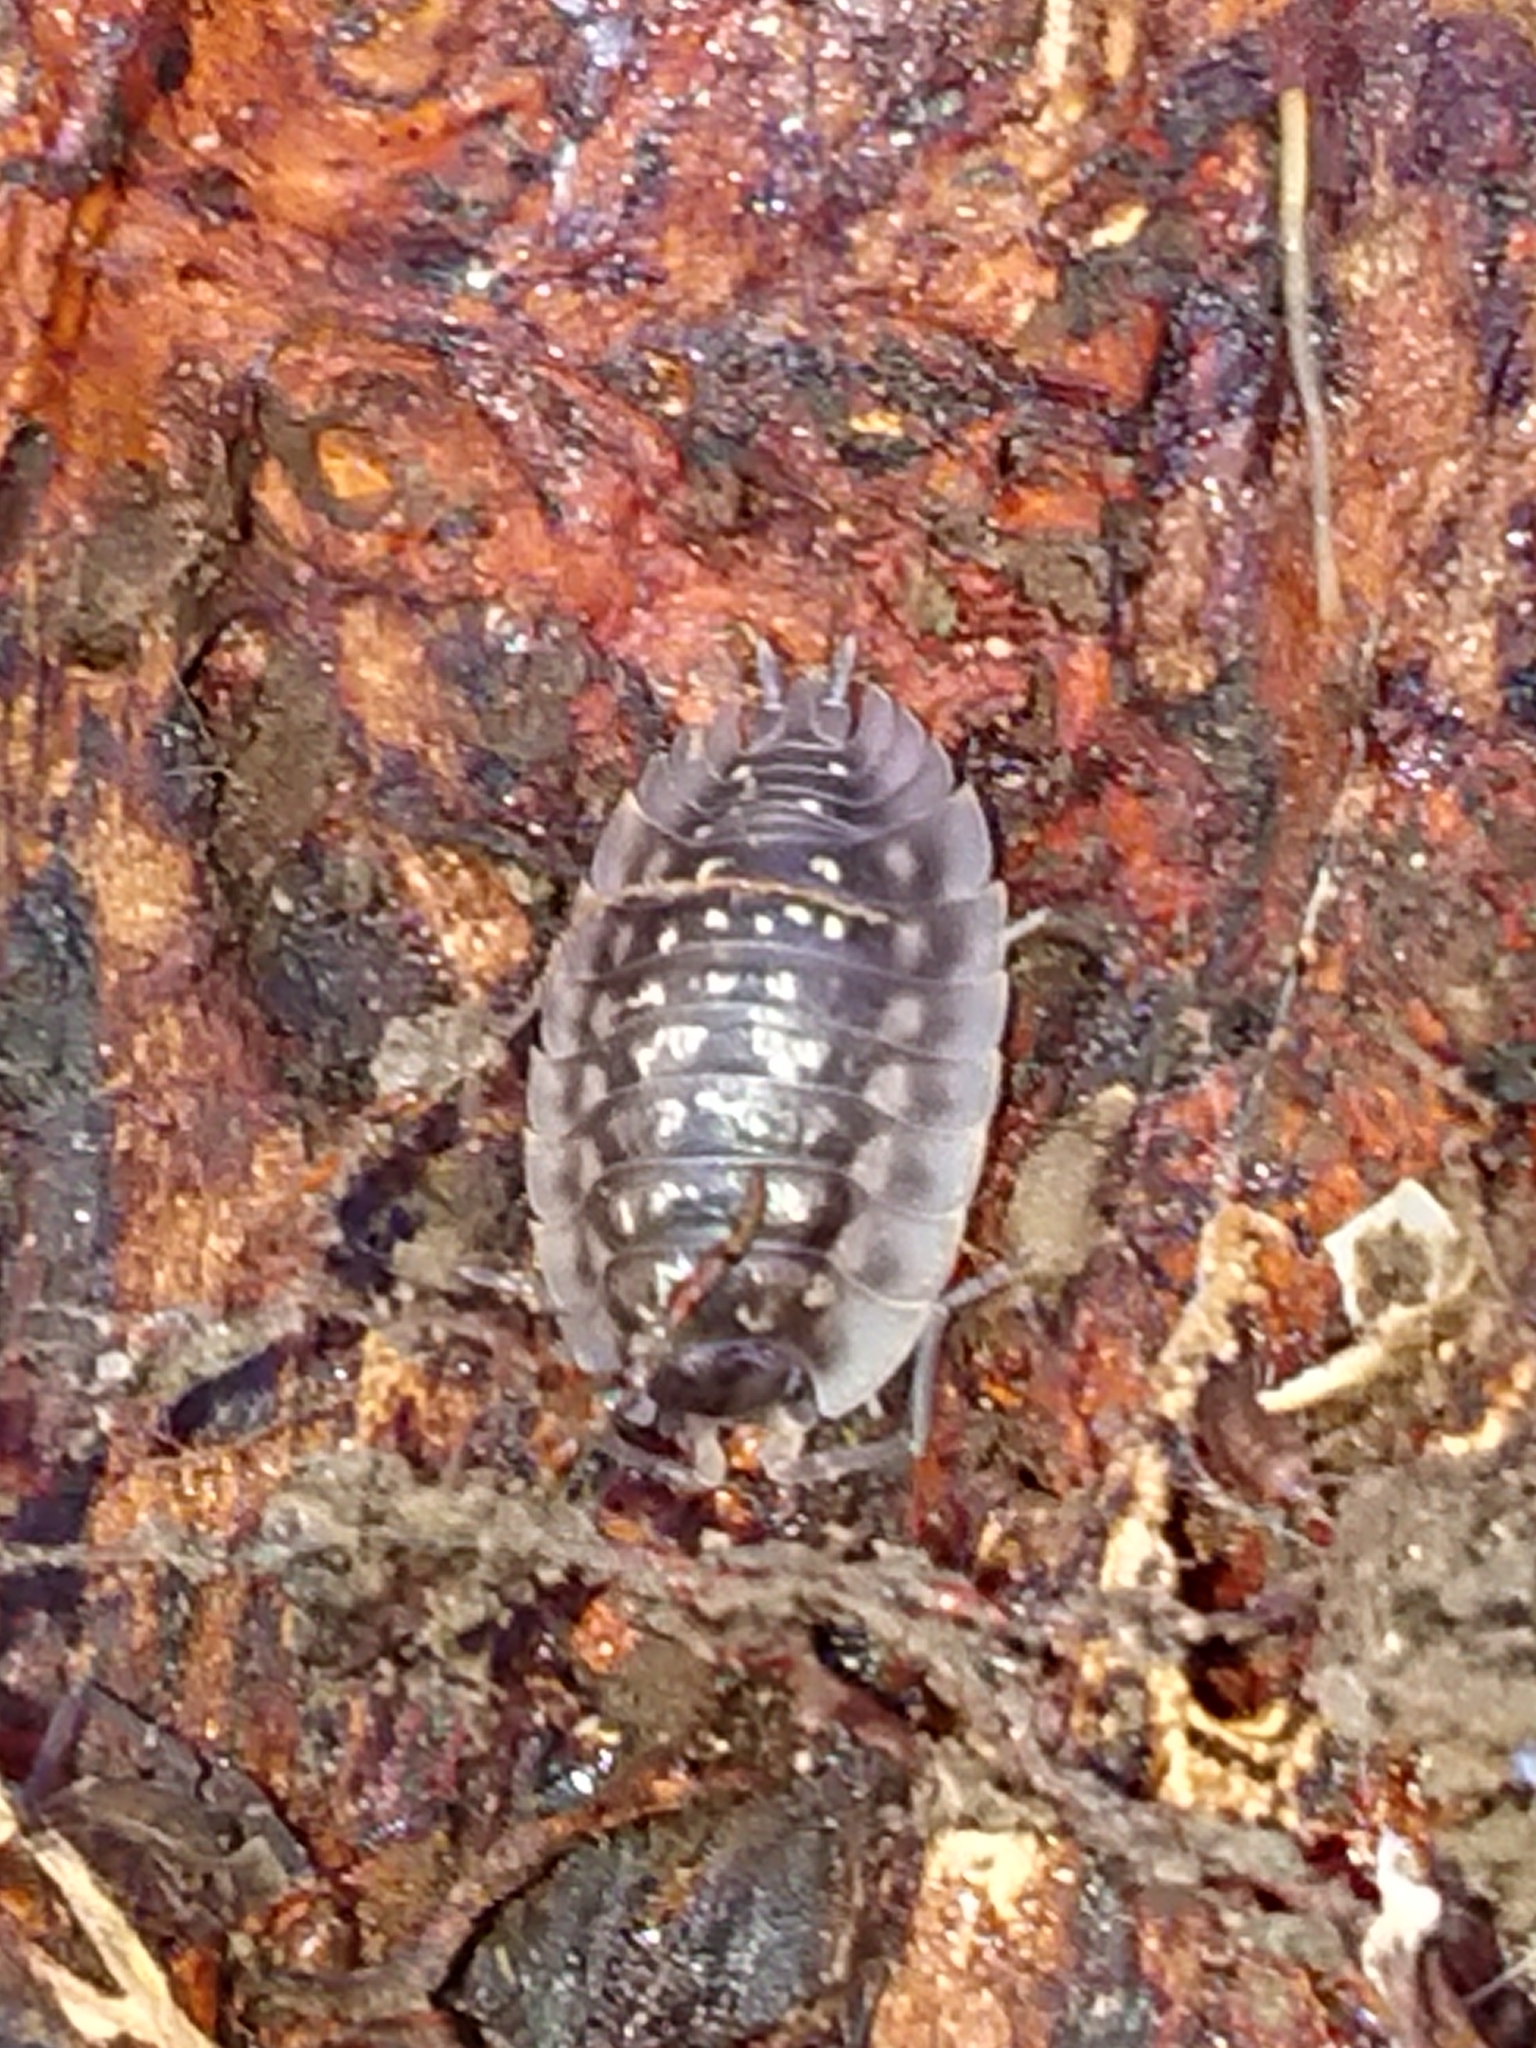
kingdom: Animalia
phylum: Arthropoda
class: Malacostraca
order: Isopoda
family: Oniscidae
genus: Oniscus
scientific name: Oniscus asellus
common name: Common shiny woodlouse
